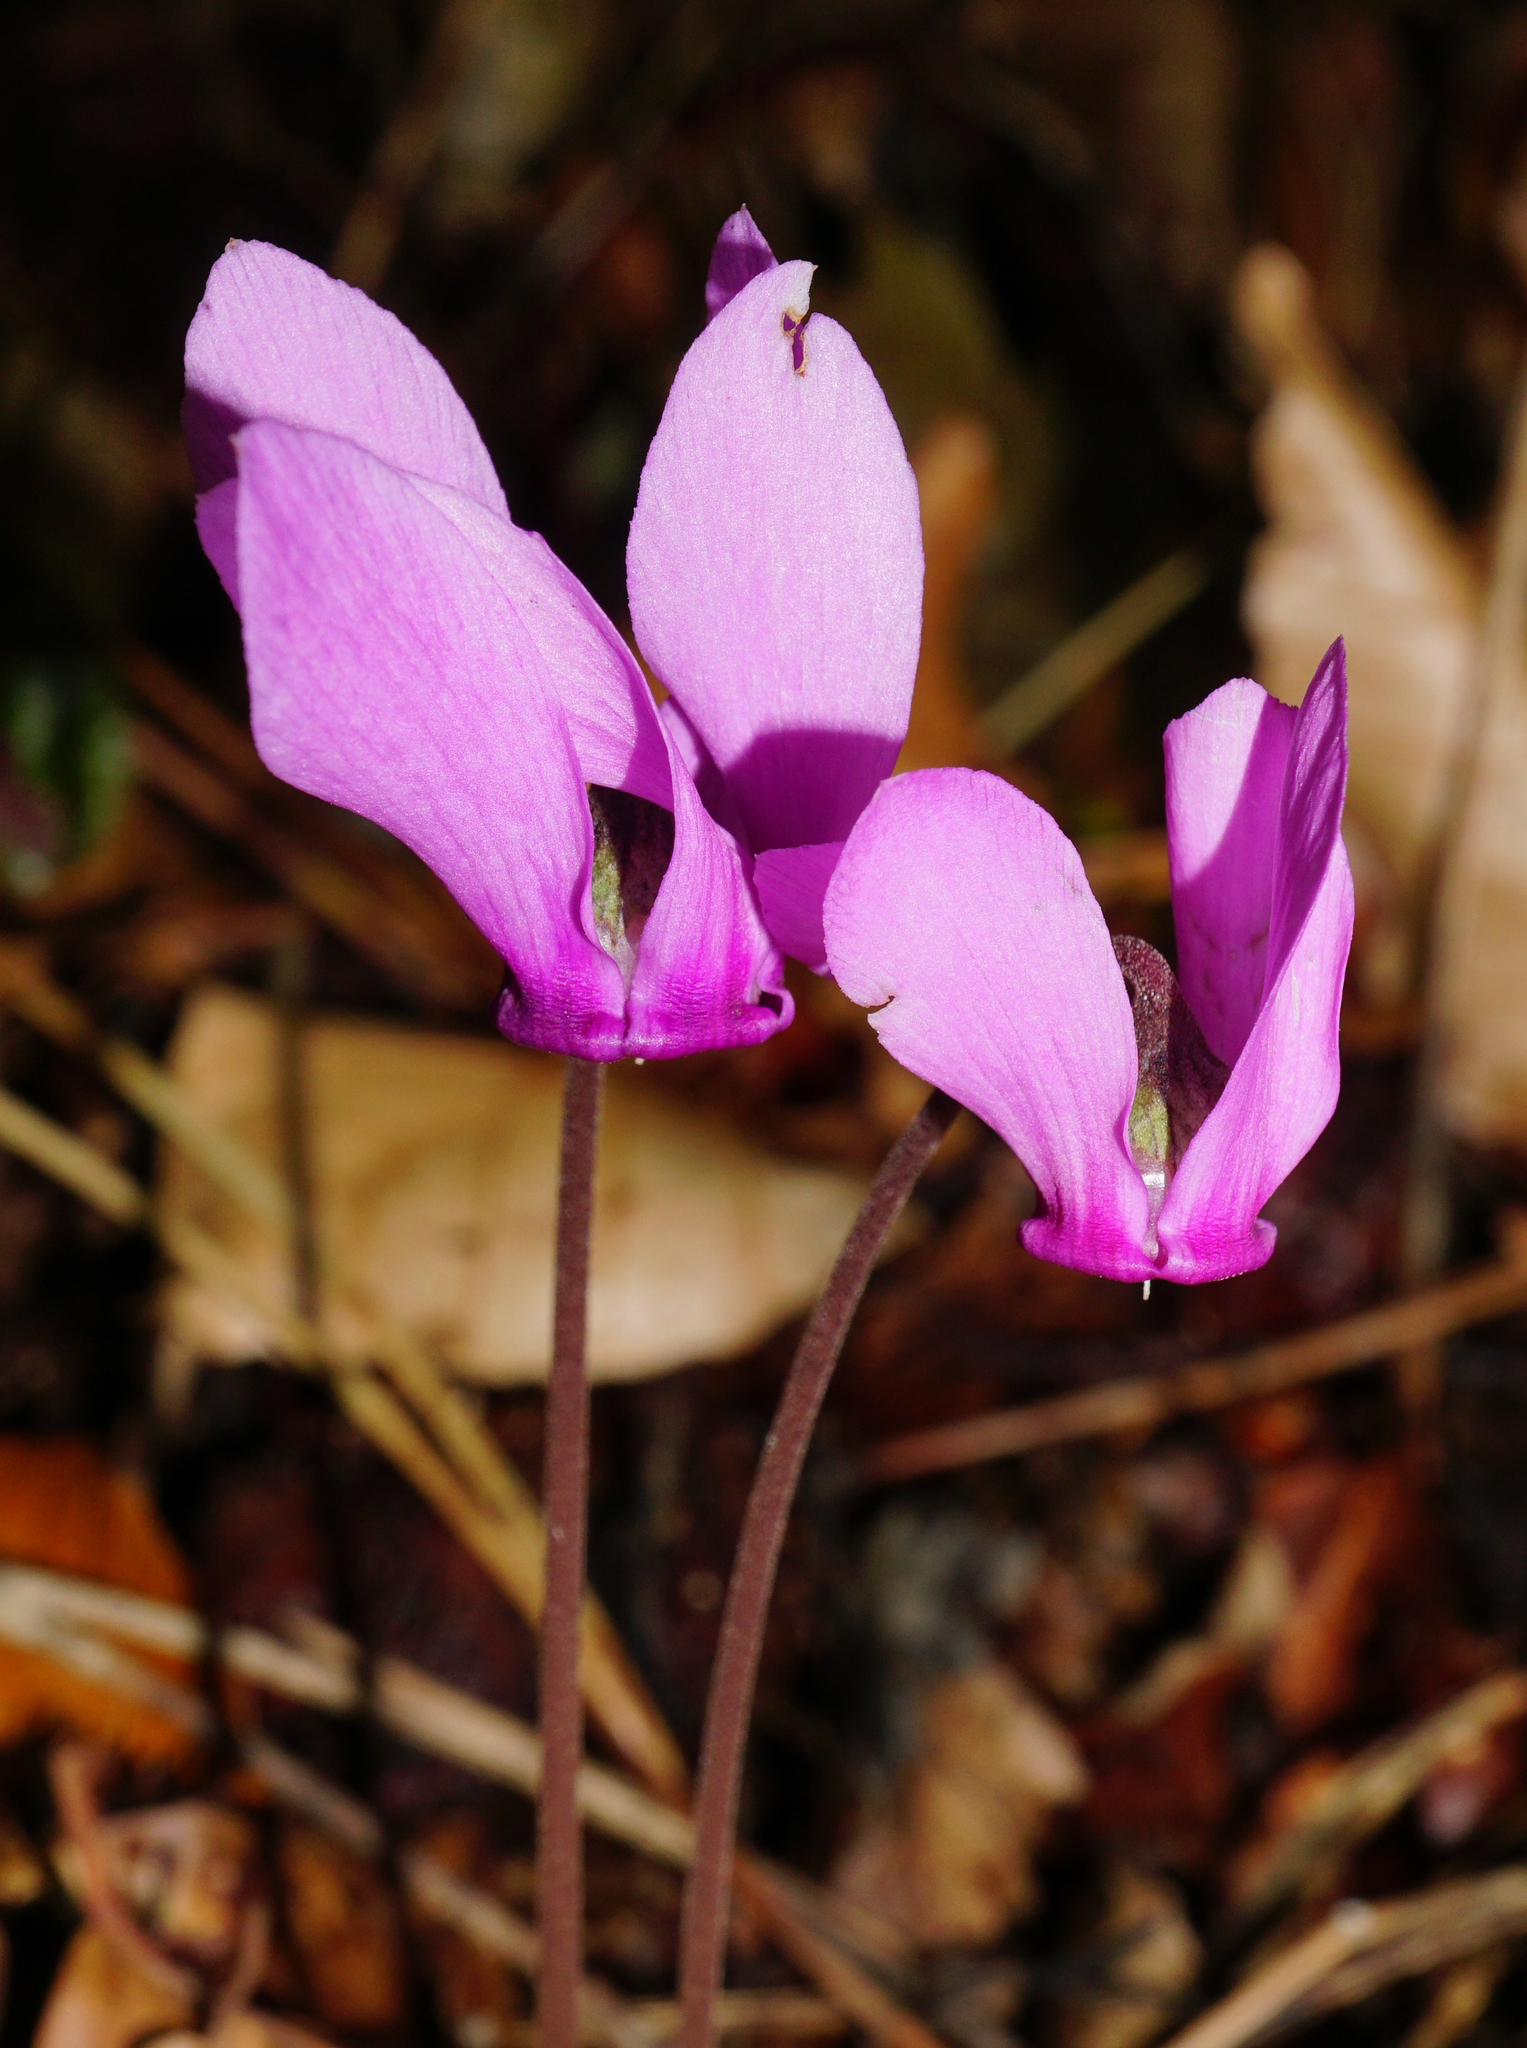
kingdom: Plantae
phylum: Tracheophyta
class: Magnoliopsida
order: Ericales
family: Primulaceae
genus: Cyclamen
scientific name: Cyclamen purpurascens
